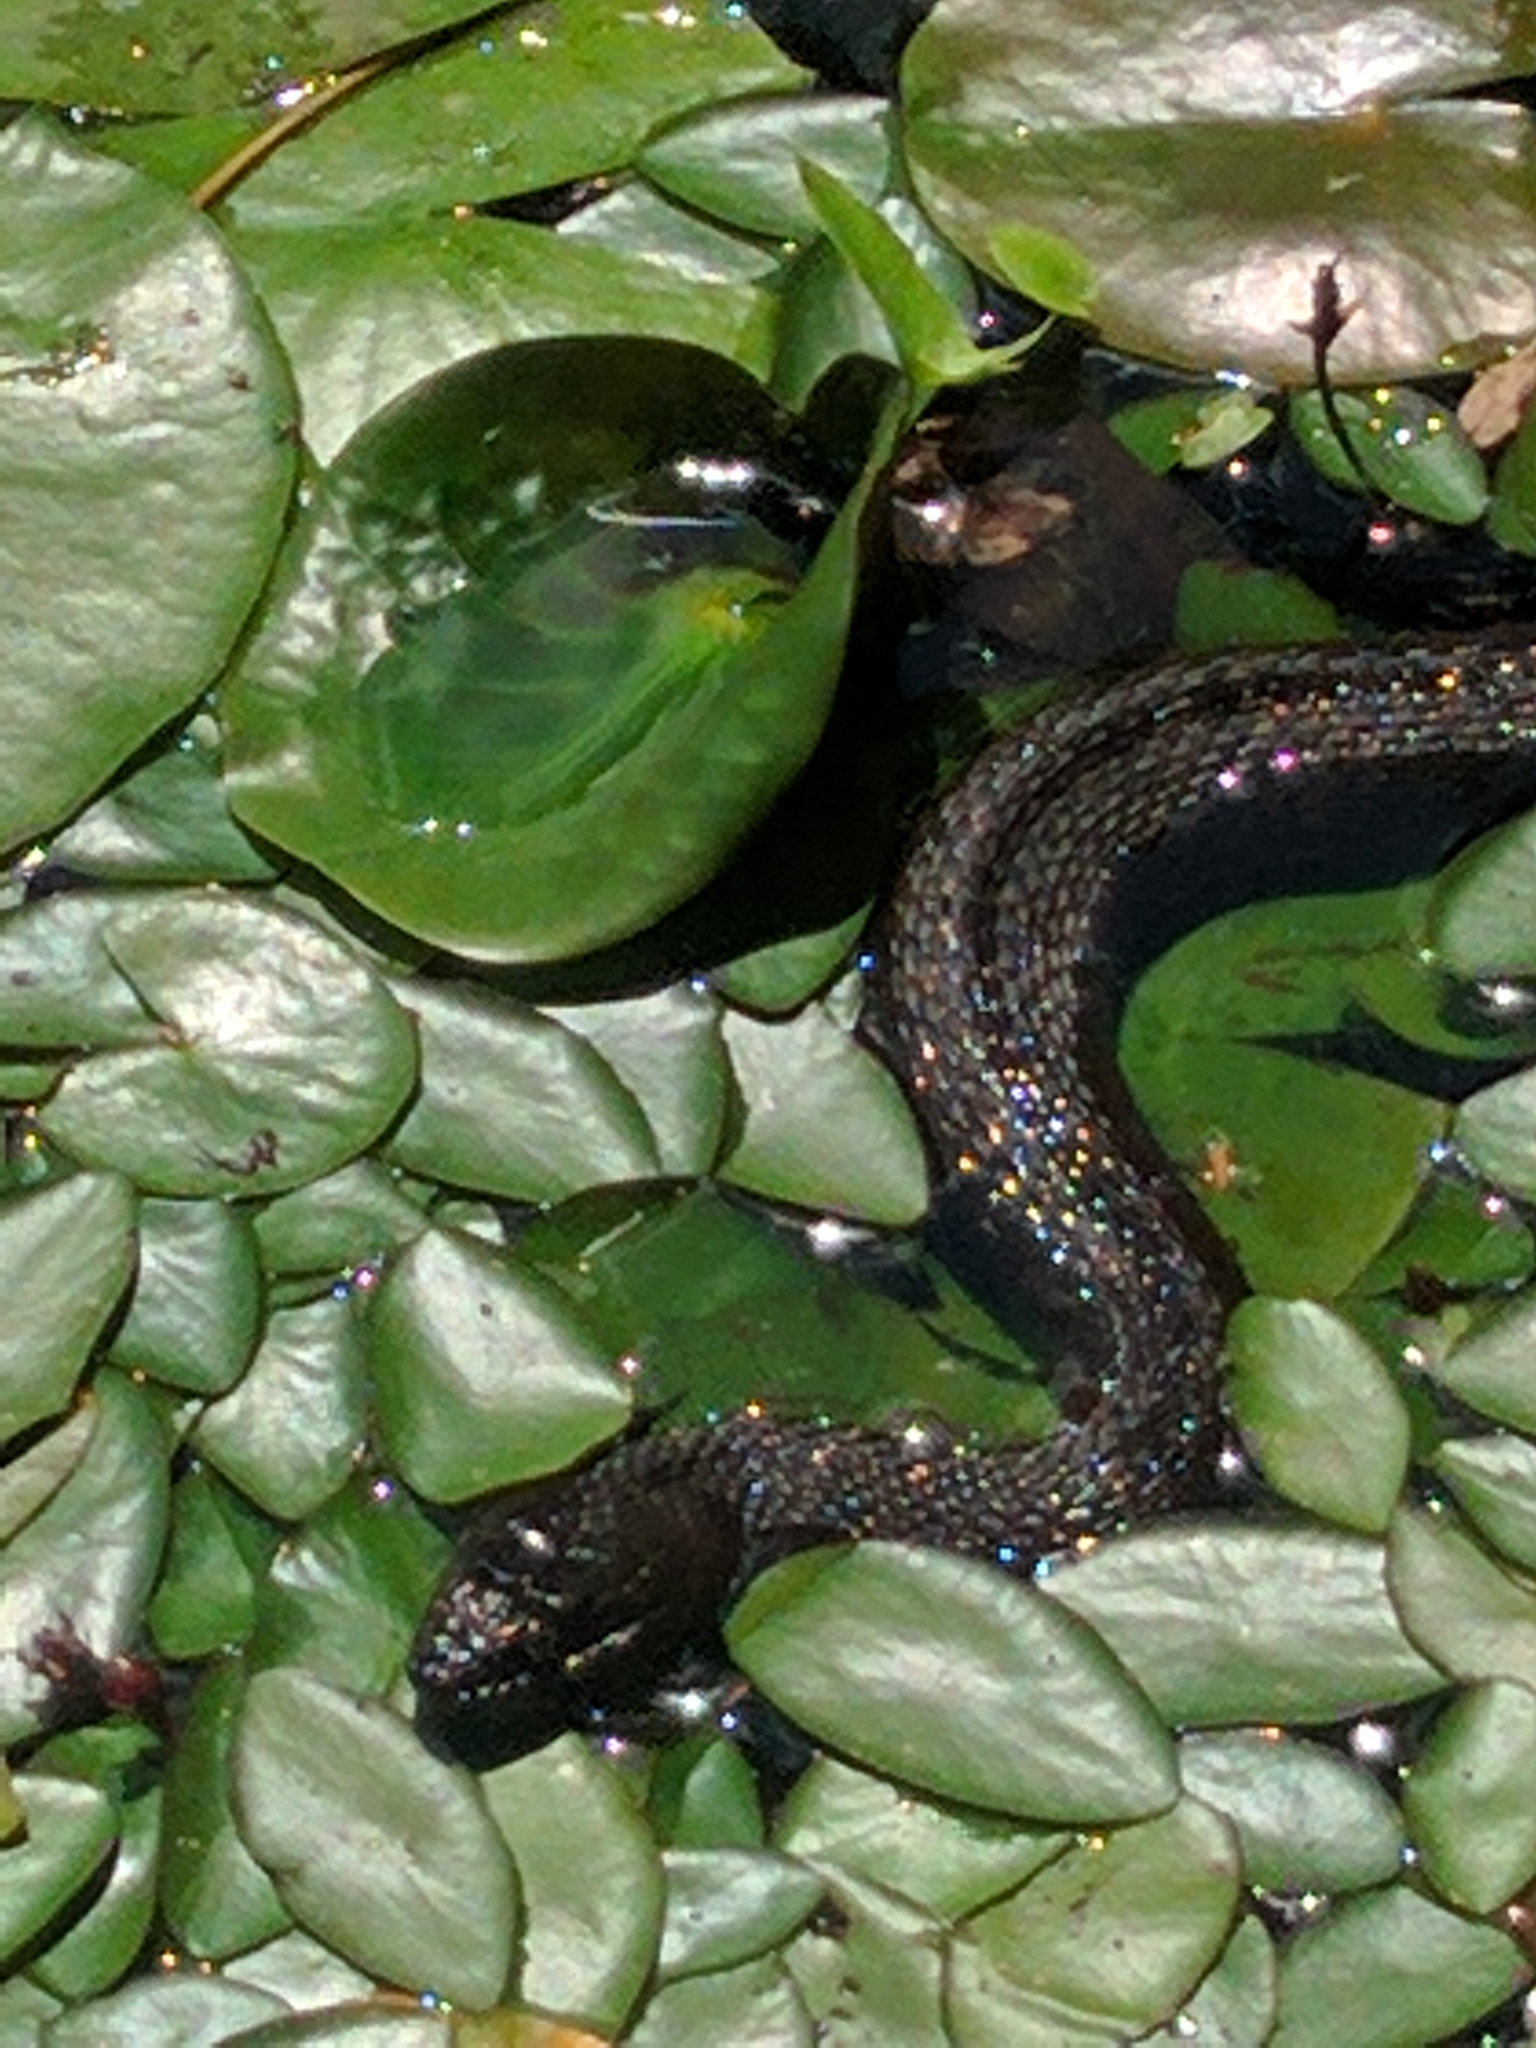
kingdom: Animalia
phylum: Chordata
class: Squamata
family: Colubridae
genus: Nerodia
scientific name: Nerodia sipedon
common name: Northern water snake
